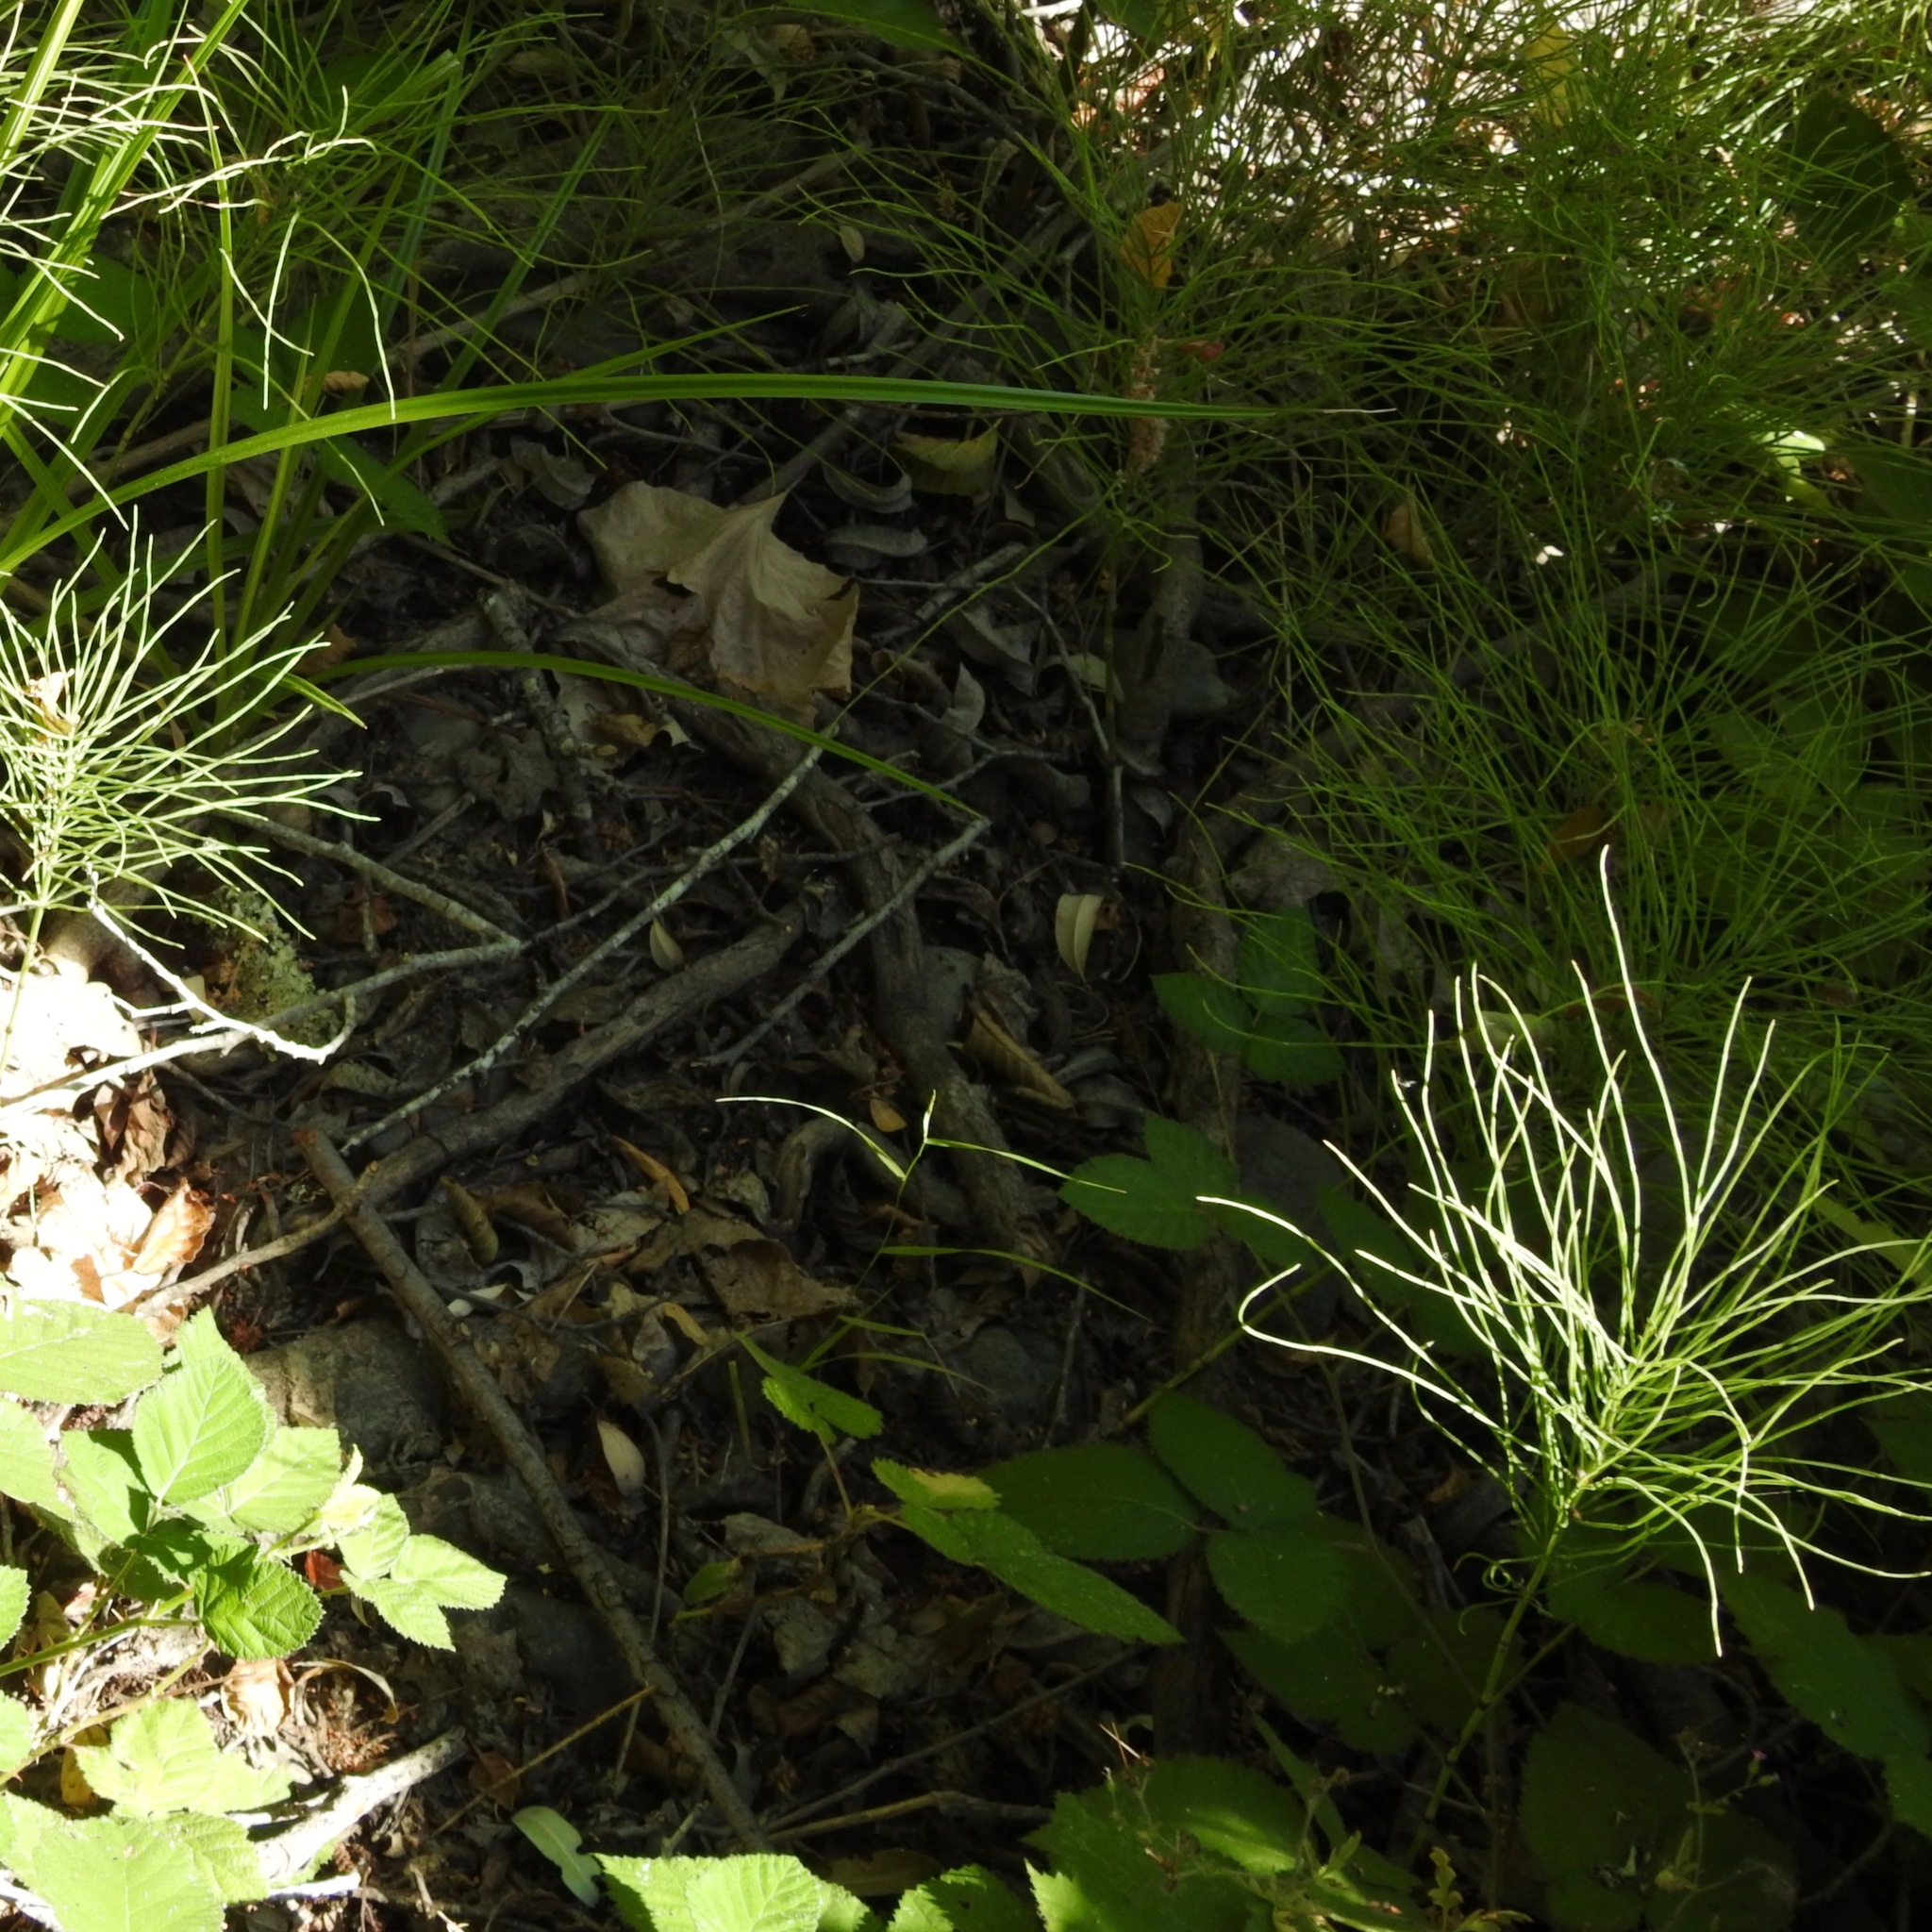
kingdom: Plantae
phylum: Tracheophyta
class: Polypodiopsida
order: Equisetales
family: Equisetaceae
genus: Equisetum
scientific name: Equisetum arvense
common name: Field horsetail
